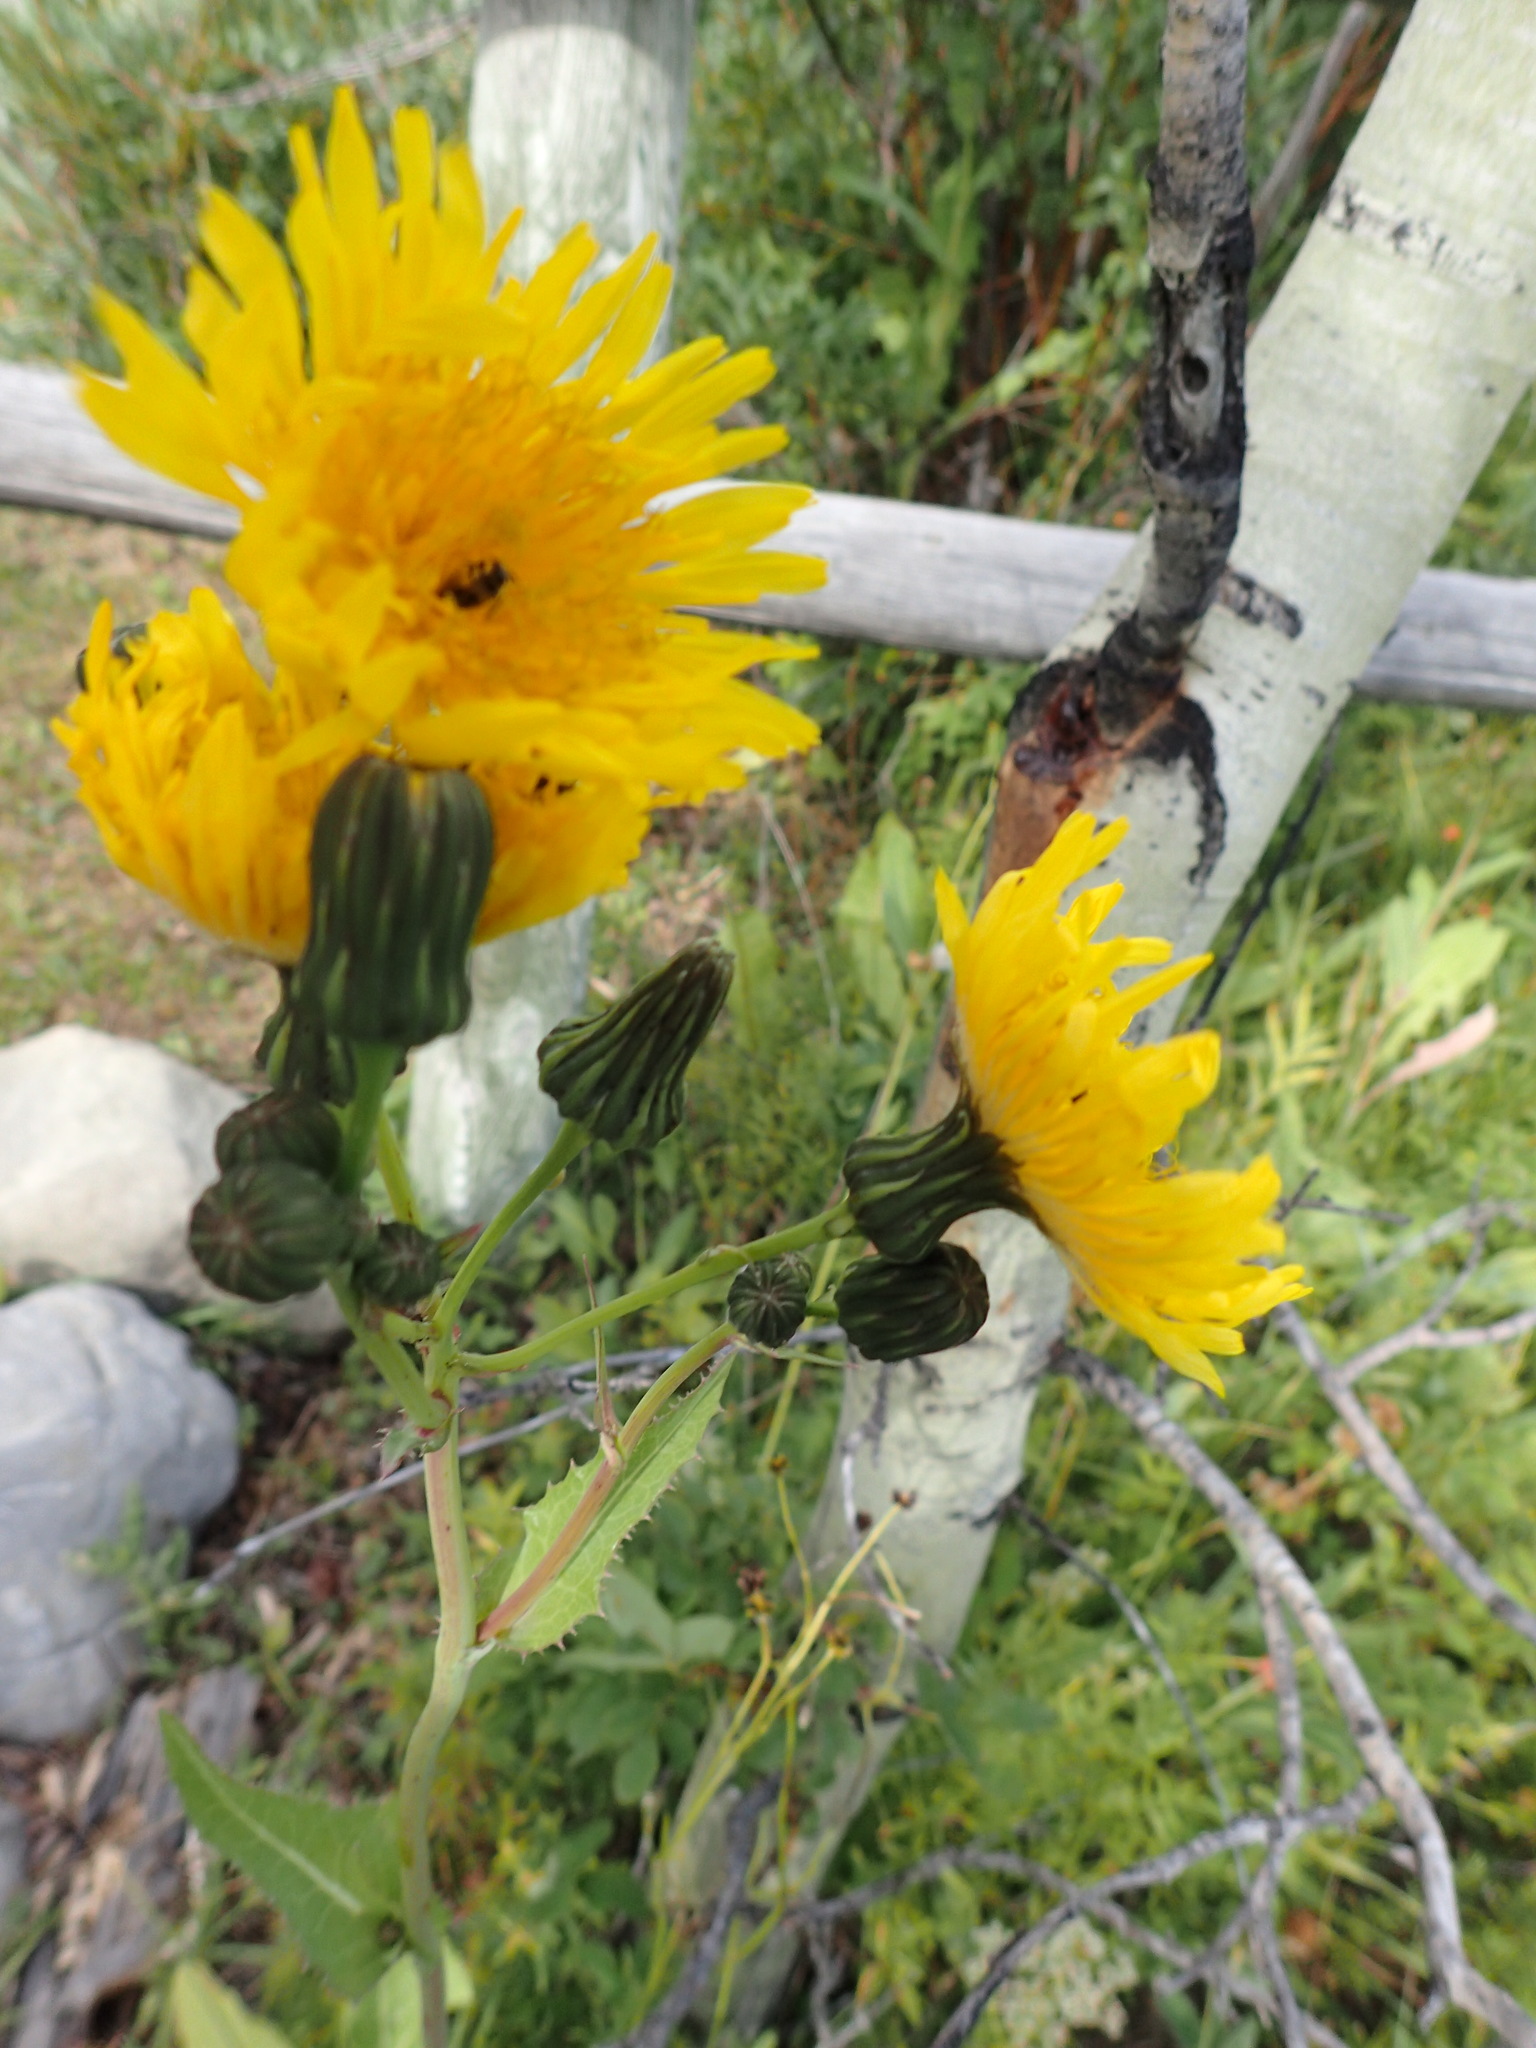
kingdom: Plantae
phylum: Tracheophyta
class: Magnoliopsida
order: Asterales
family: Asteraceae
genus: Sonchus
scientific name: Sonchus arvensis
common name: Perennial sow-thistle
